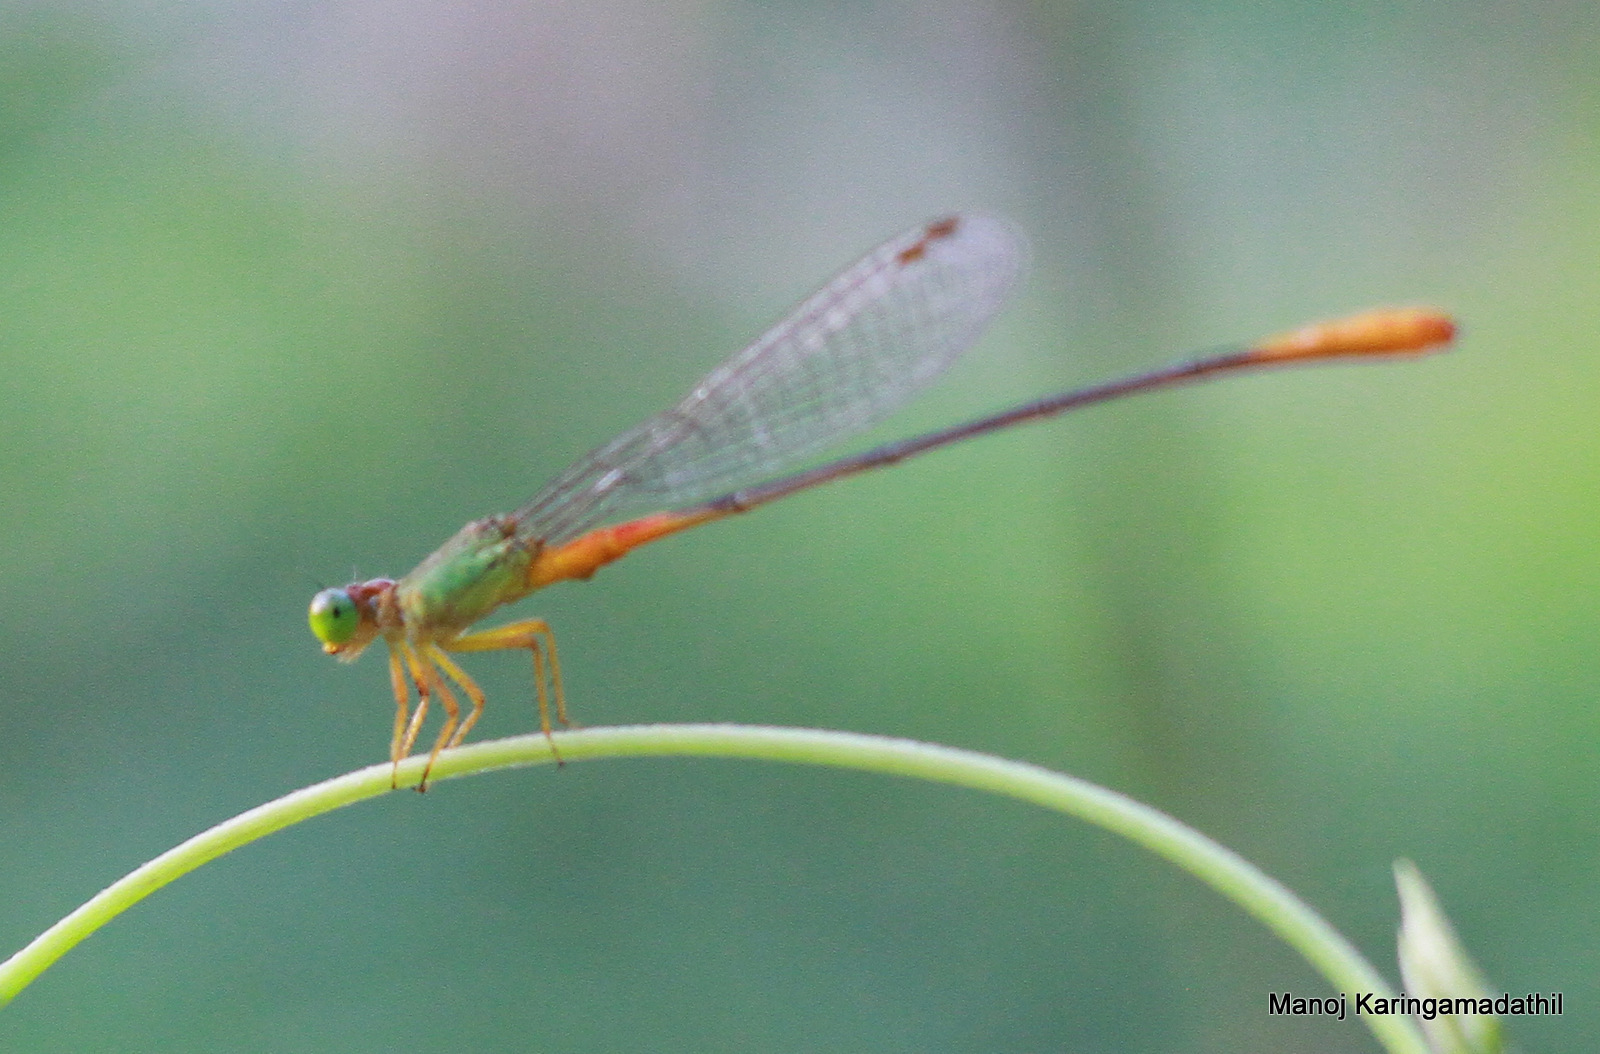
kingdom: Animalia
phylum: Arthropoda
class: Insecta
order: Odonata
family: Coenagrionidae
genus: Ceriagrion
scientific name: Ceriagrion cerinorubellum
